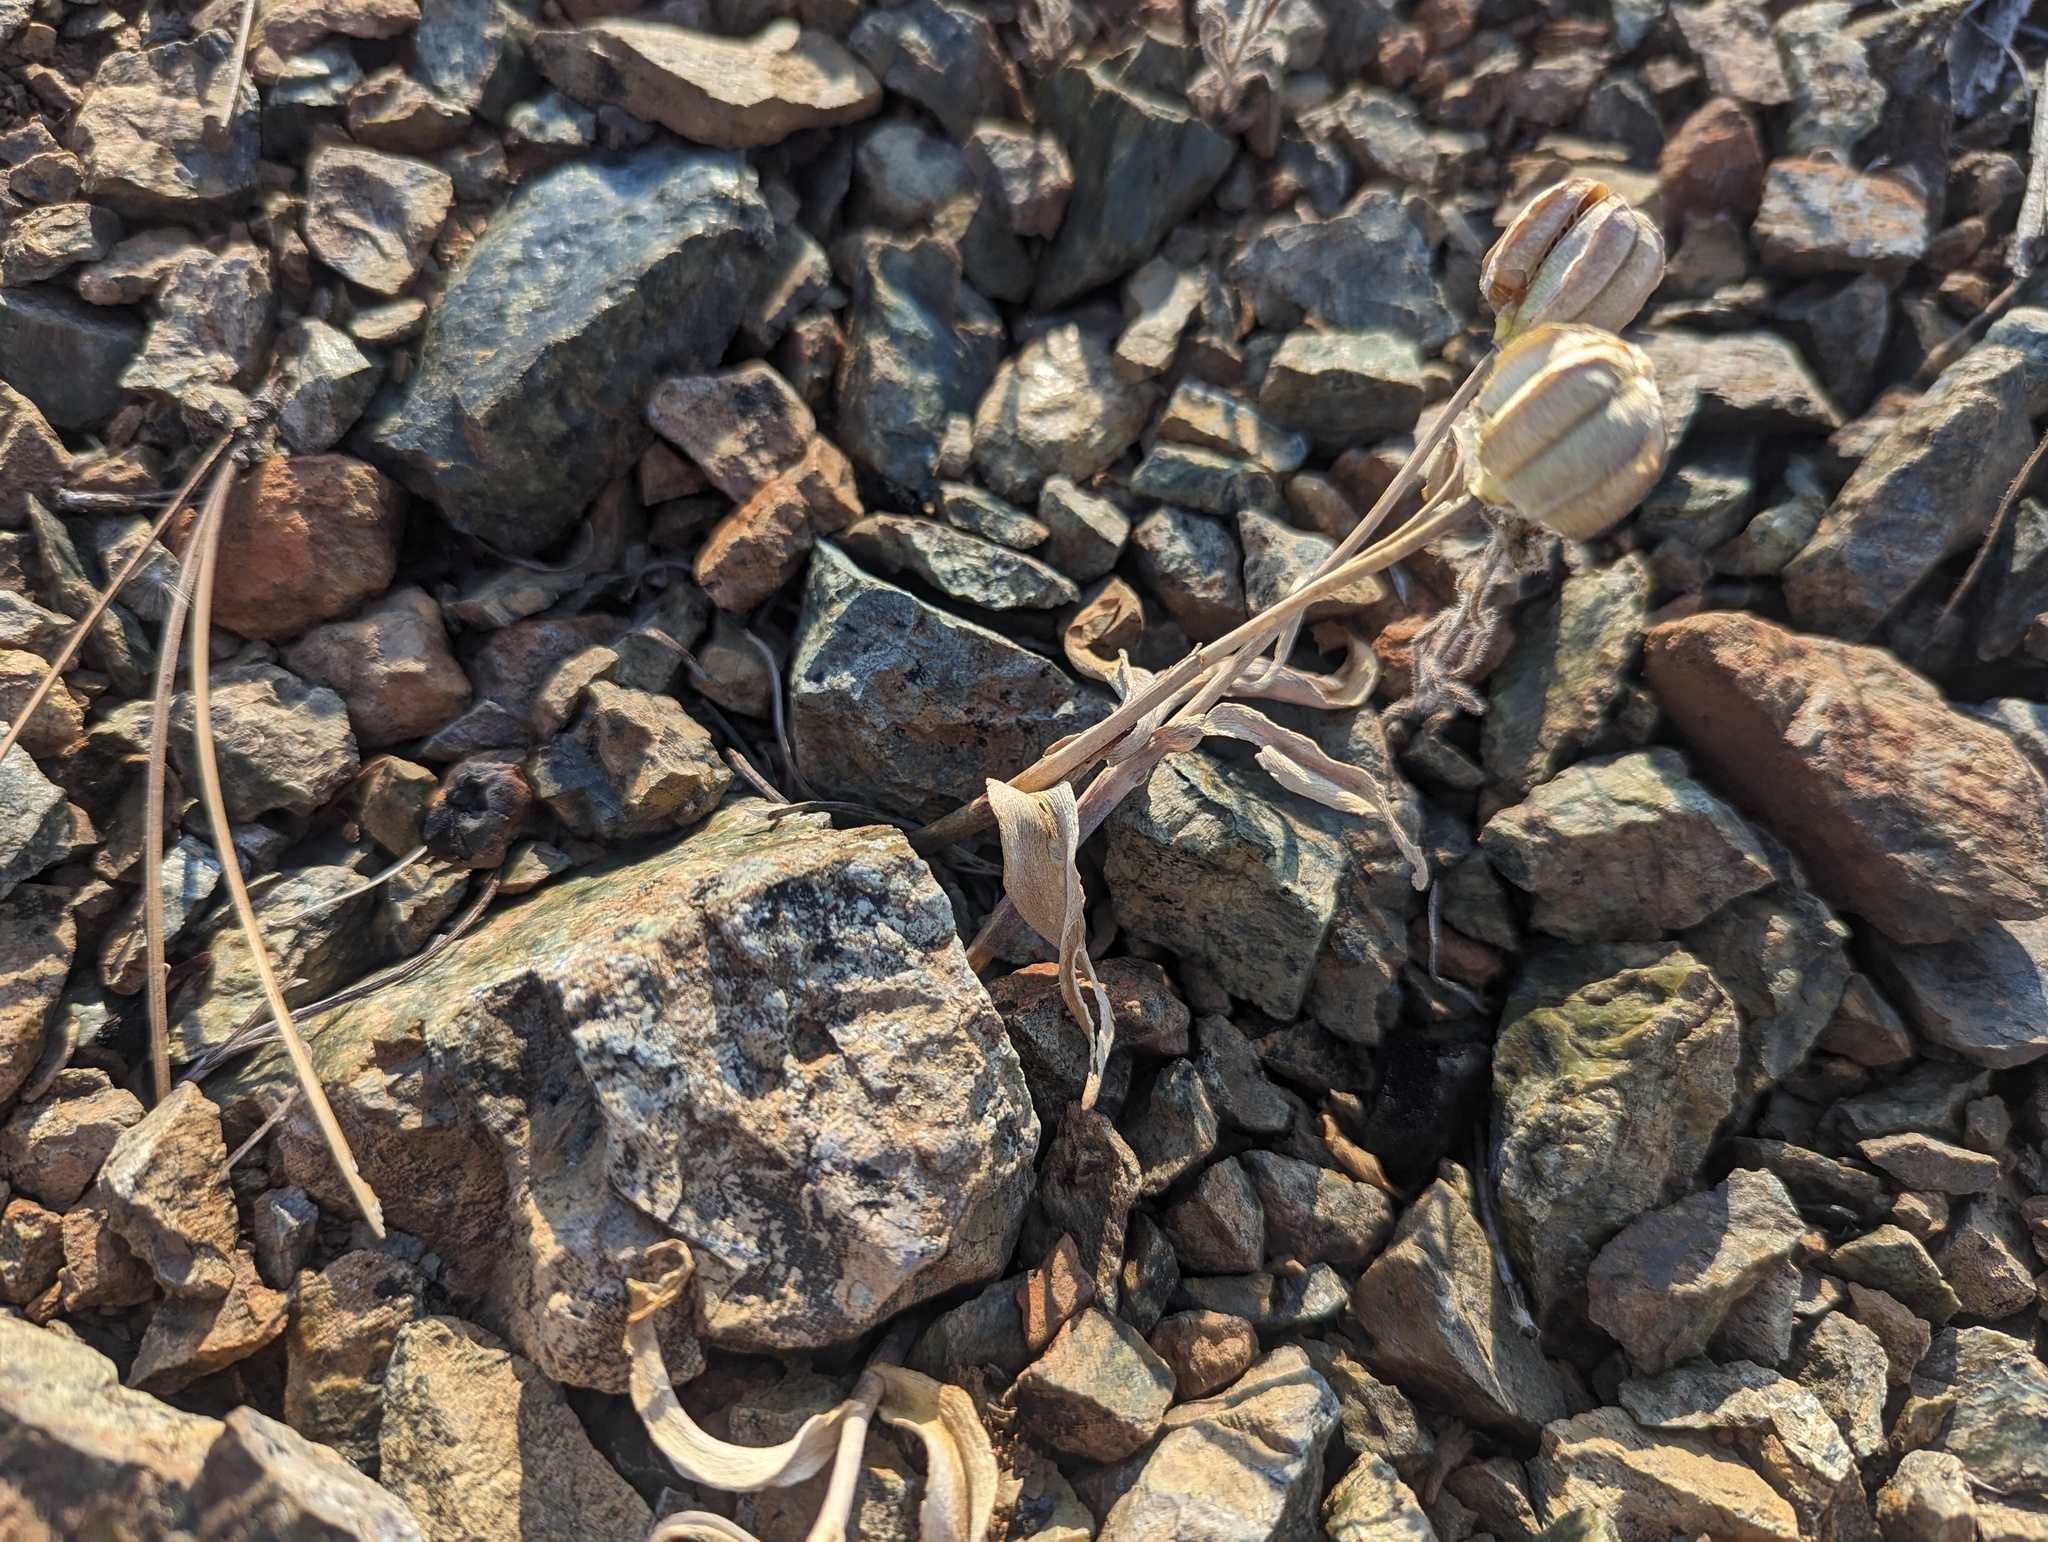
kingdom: Plantae
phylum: Tracheophyta
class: Liliopsida
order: Liliales
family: Liliaceae
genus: Fritillaria
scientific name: Fritillaria glauca
